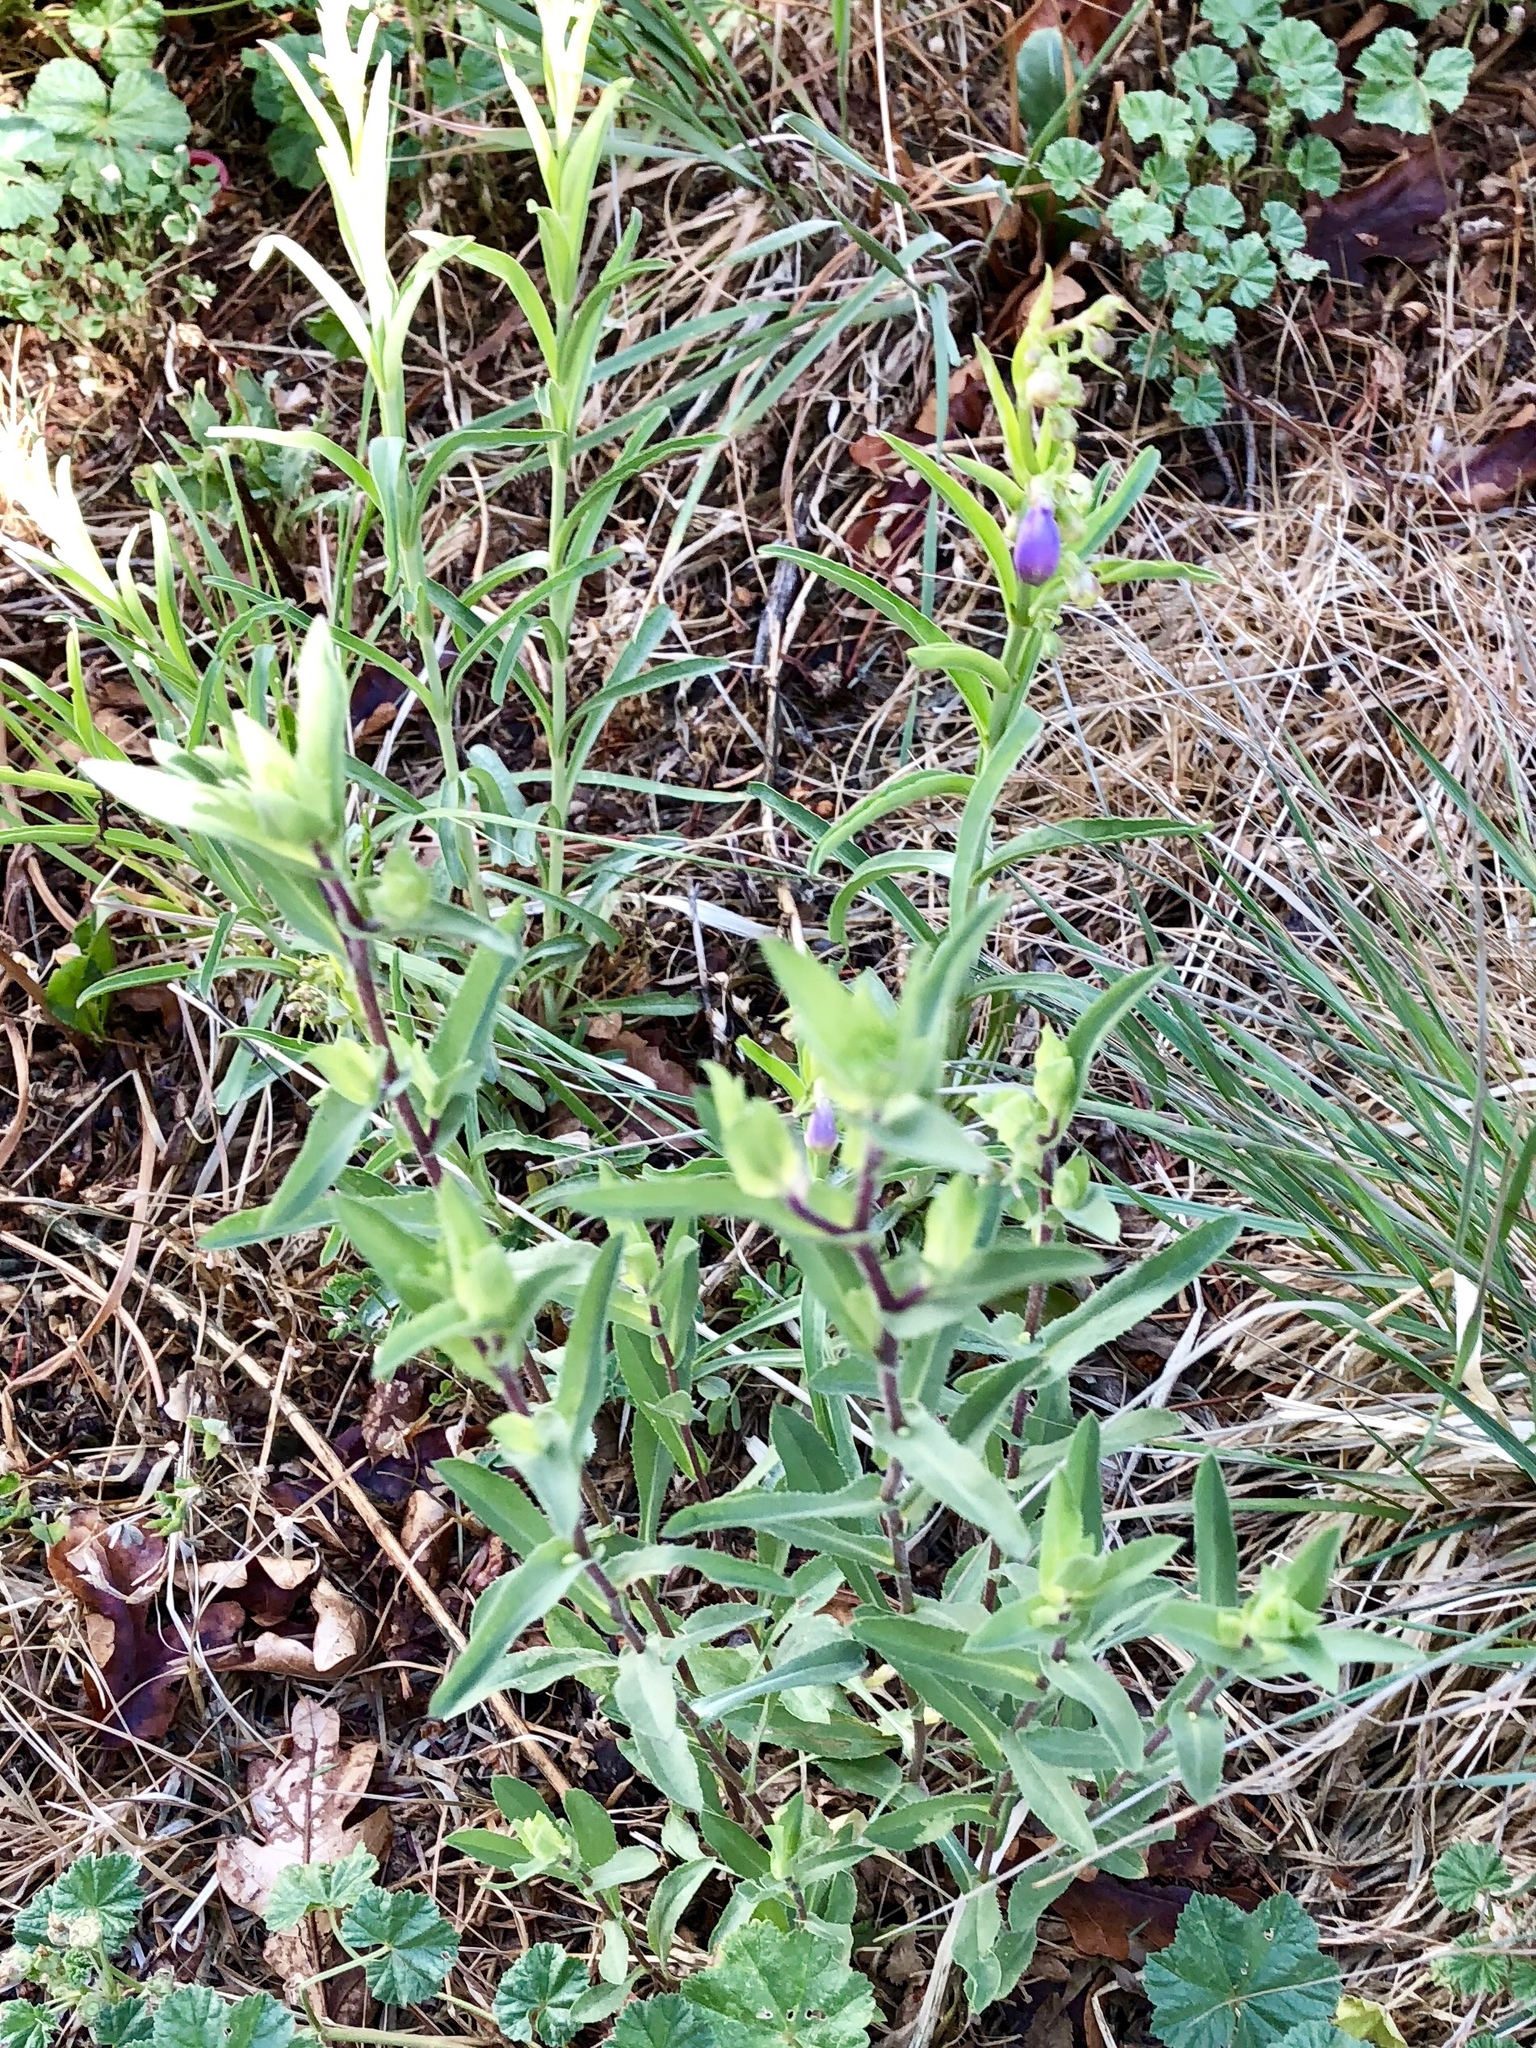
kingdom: Plantae
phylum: Tracheophyta
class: Magnoliopsida
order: Lamiales
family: Plantaginaceae
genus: Penstemon
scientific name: Penstemon neomexicanus
